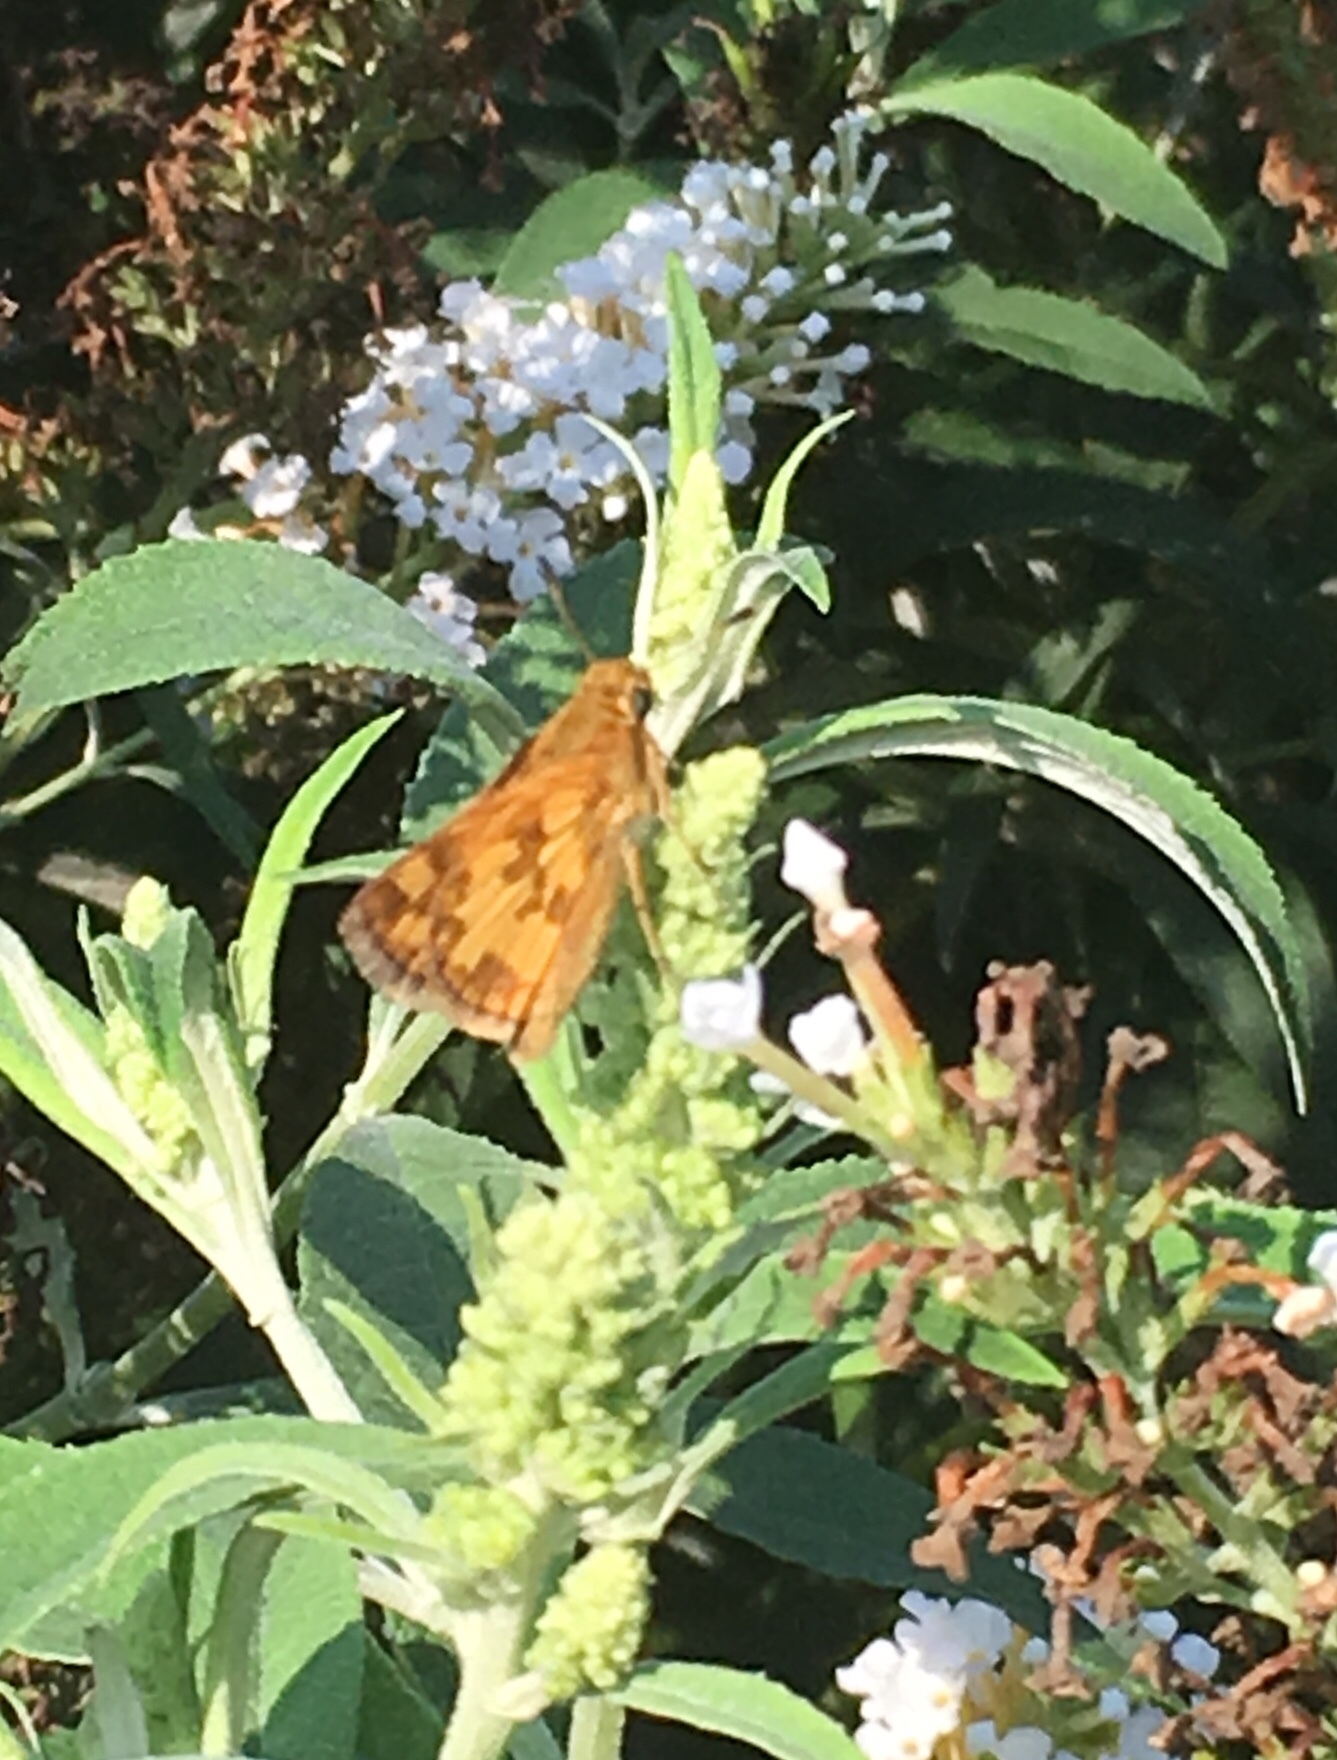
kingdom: Animalia
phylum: Arthropoda
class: Insecta
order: Lepidoptera
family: Hesperiidae
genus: Polites
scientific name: Polites coras
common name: Peck's skipper
